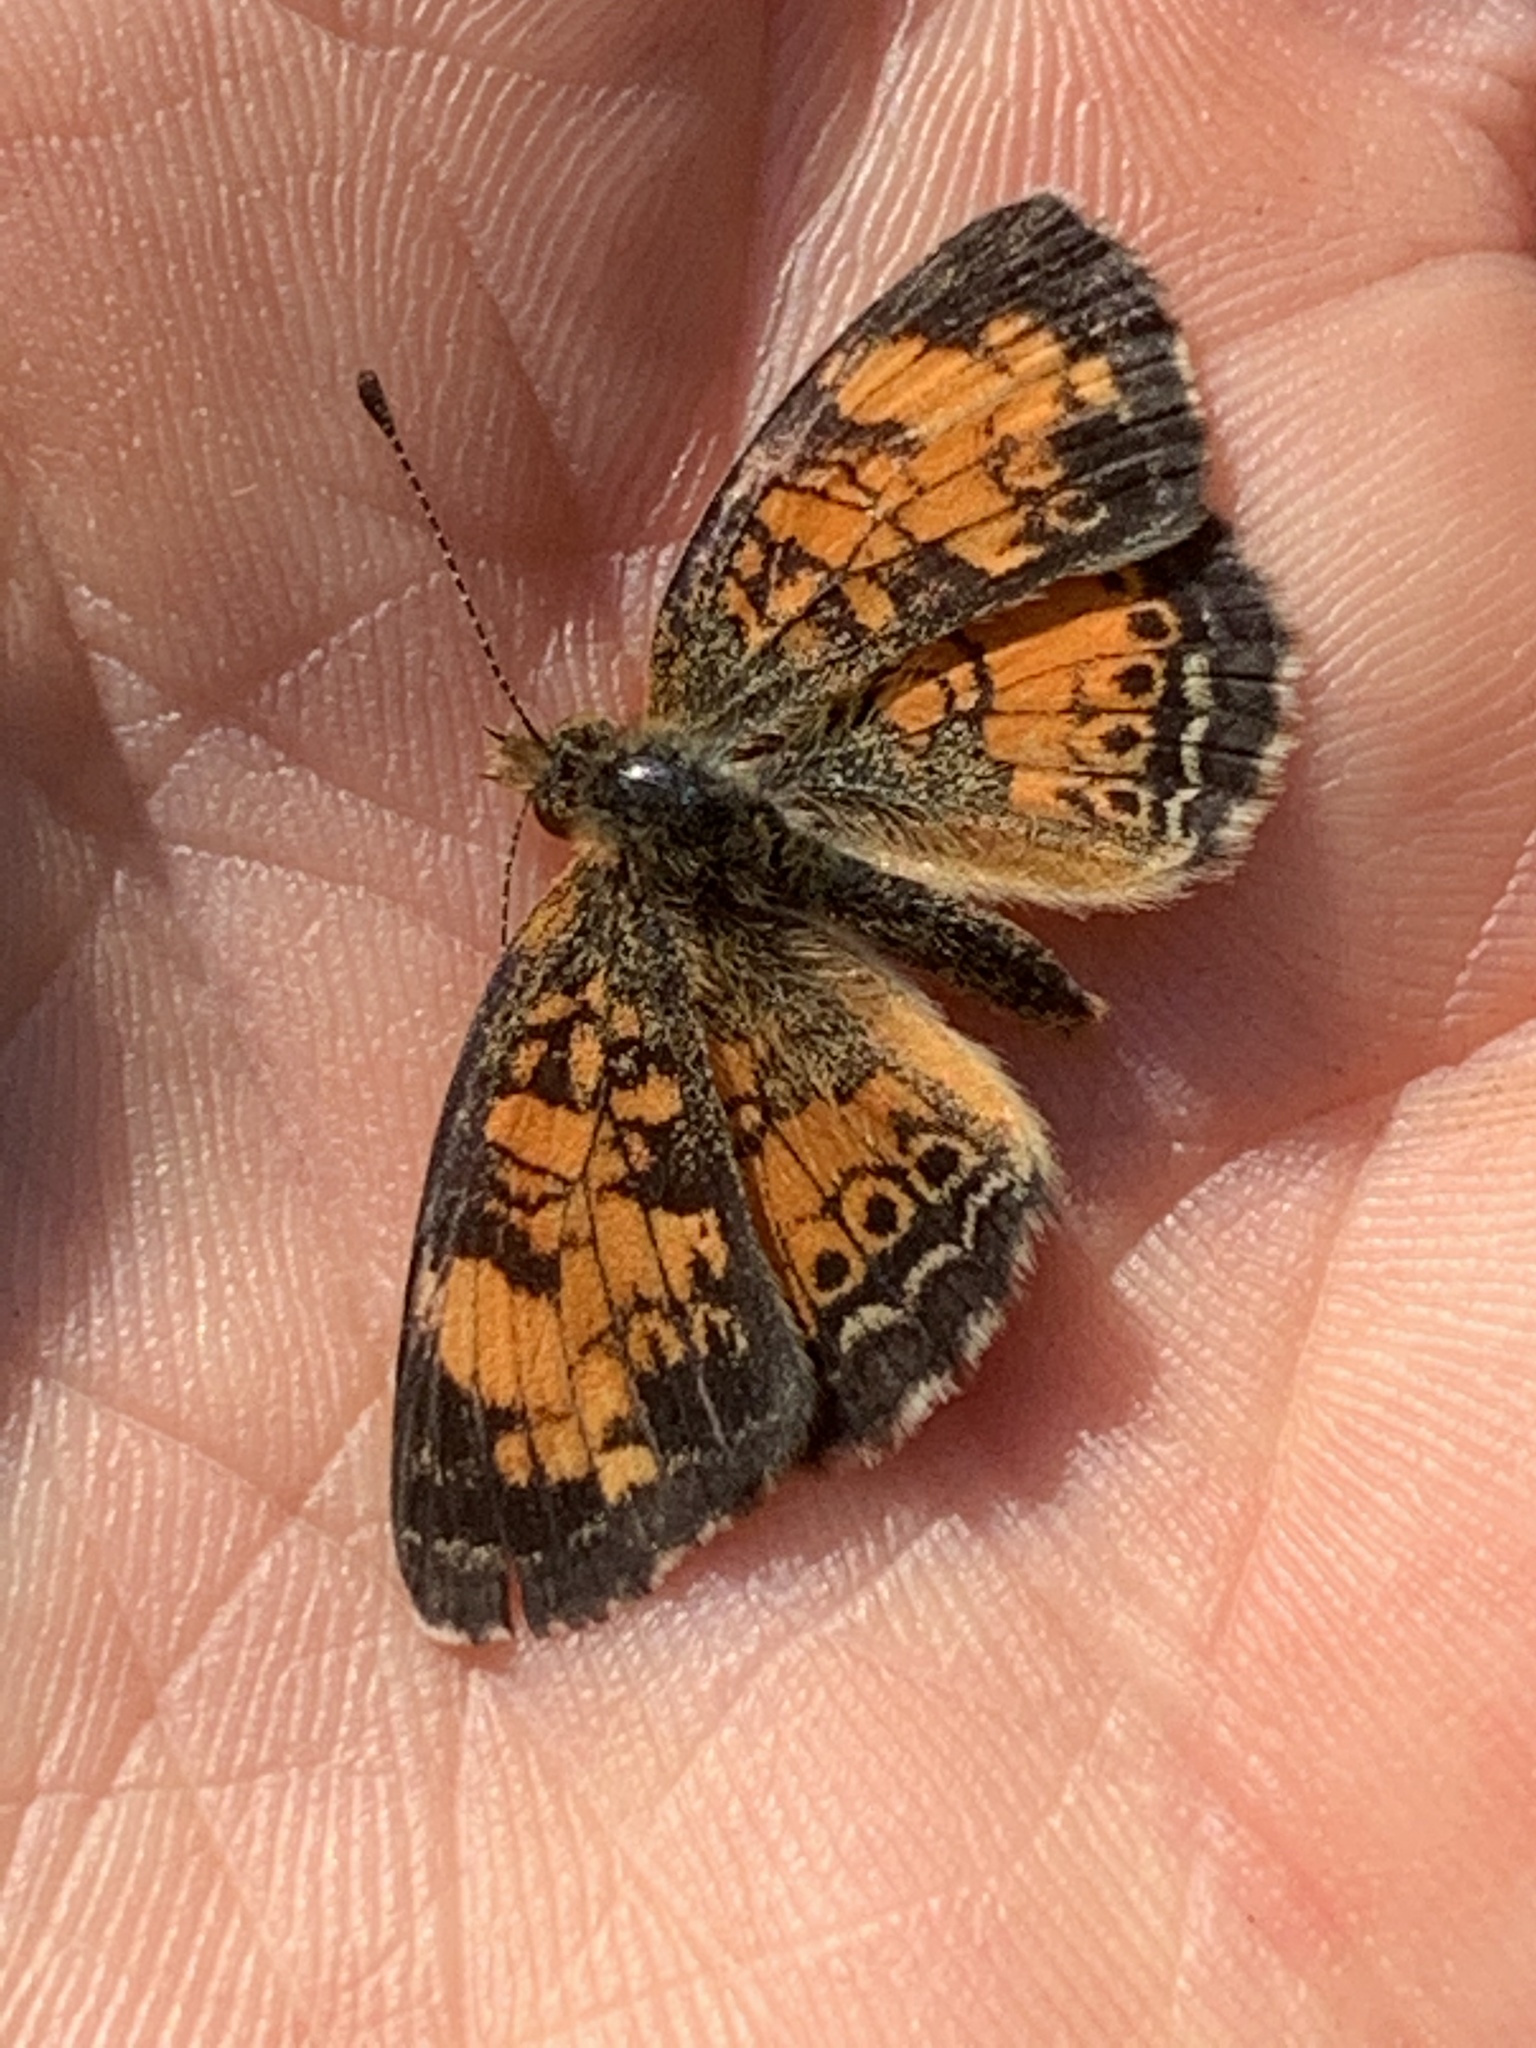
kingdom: Animalia
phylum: Arthropoda
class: Insecta
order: Lepidoptera
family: Nymphalidae
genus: Phyciodes
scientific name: Phyciodes tharos
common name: Pearl crescent
